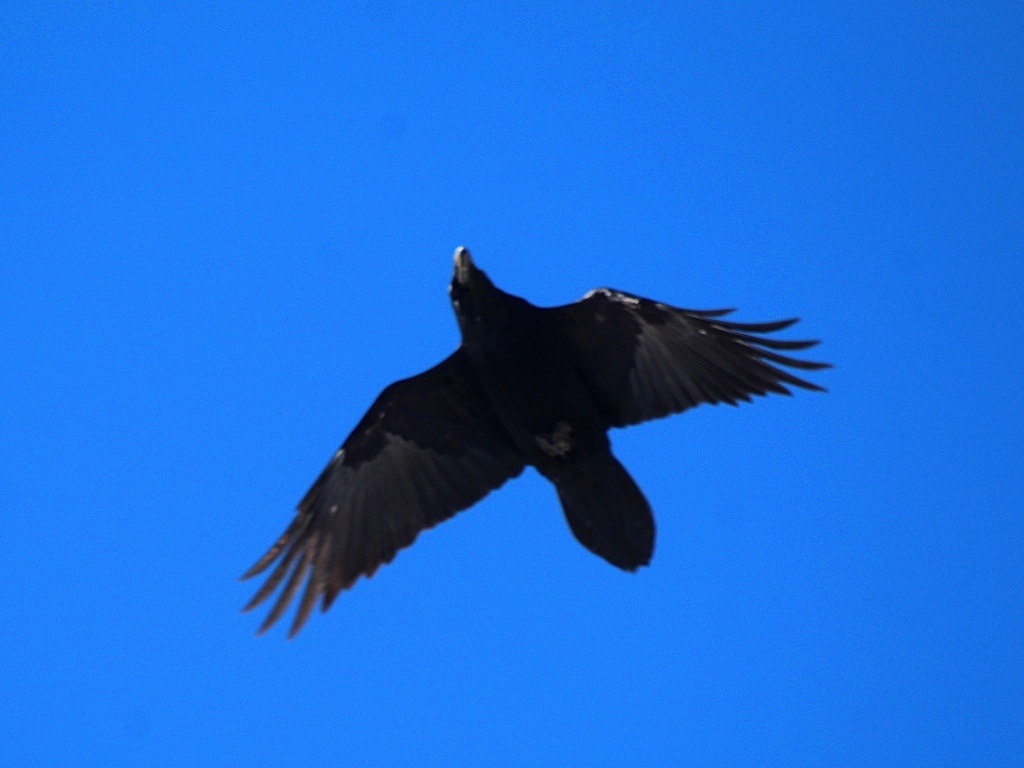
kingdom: Animalia
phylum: Chordata
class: Aves
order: Passeriformes
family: Corvidae
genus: Corvus
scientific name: Corvus corax
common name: Common raven
